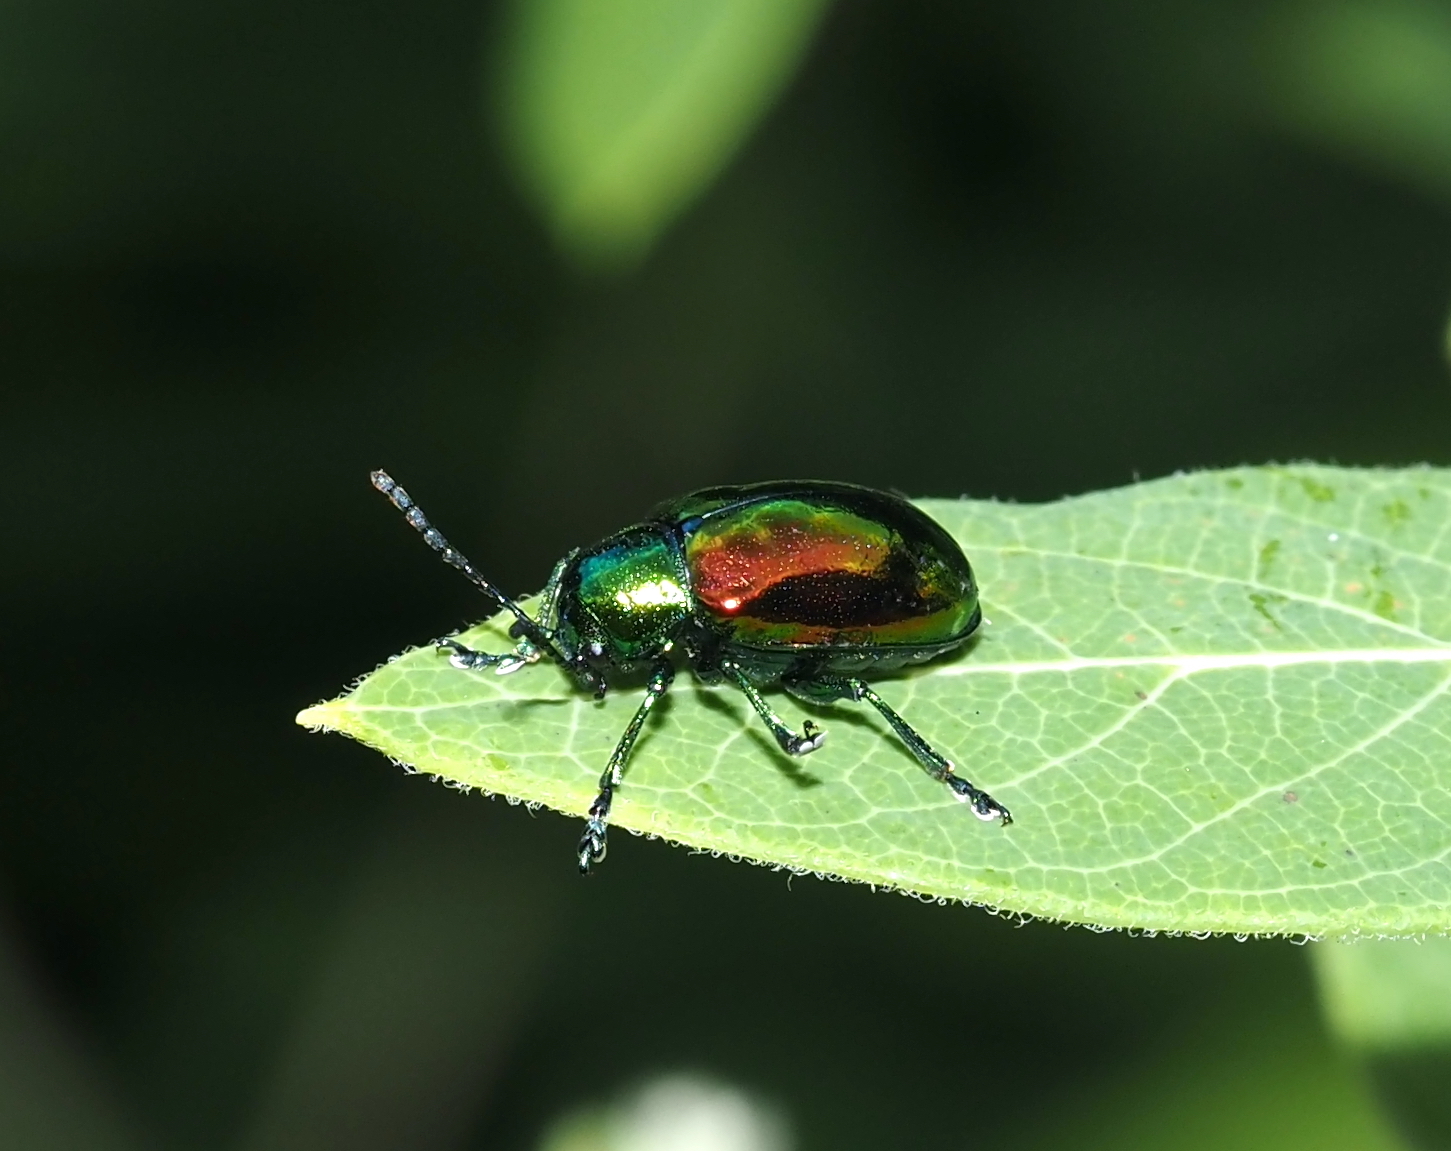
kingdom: Animalia
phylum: Arthropoda
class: Insecta
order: Coleoptera
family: Chrysomelidae
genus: Chrysochus
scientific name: Chrysochus auratus
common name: Dogbane leaf beetle
